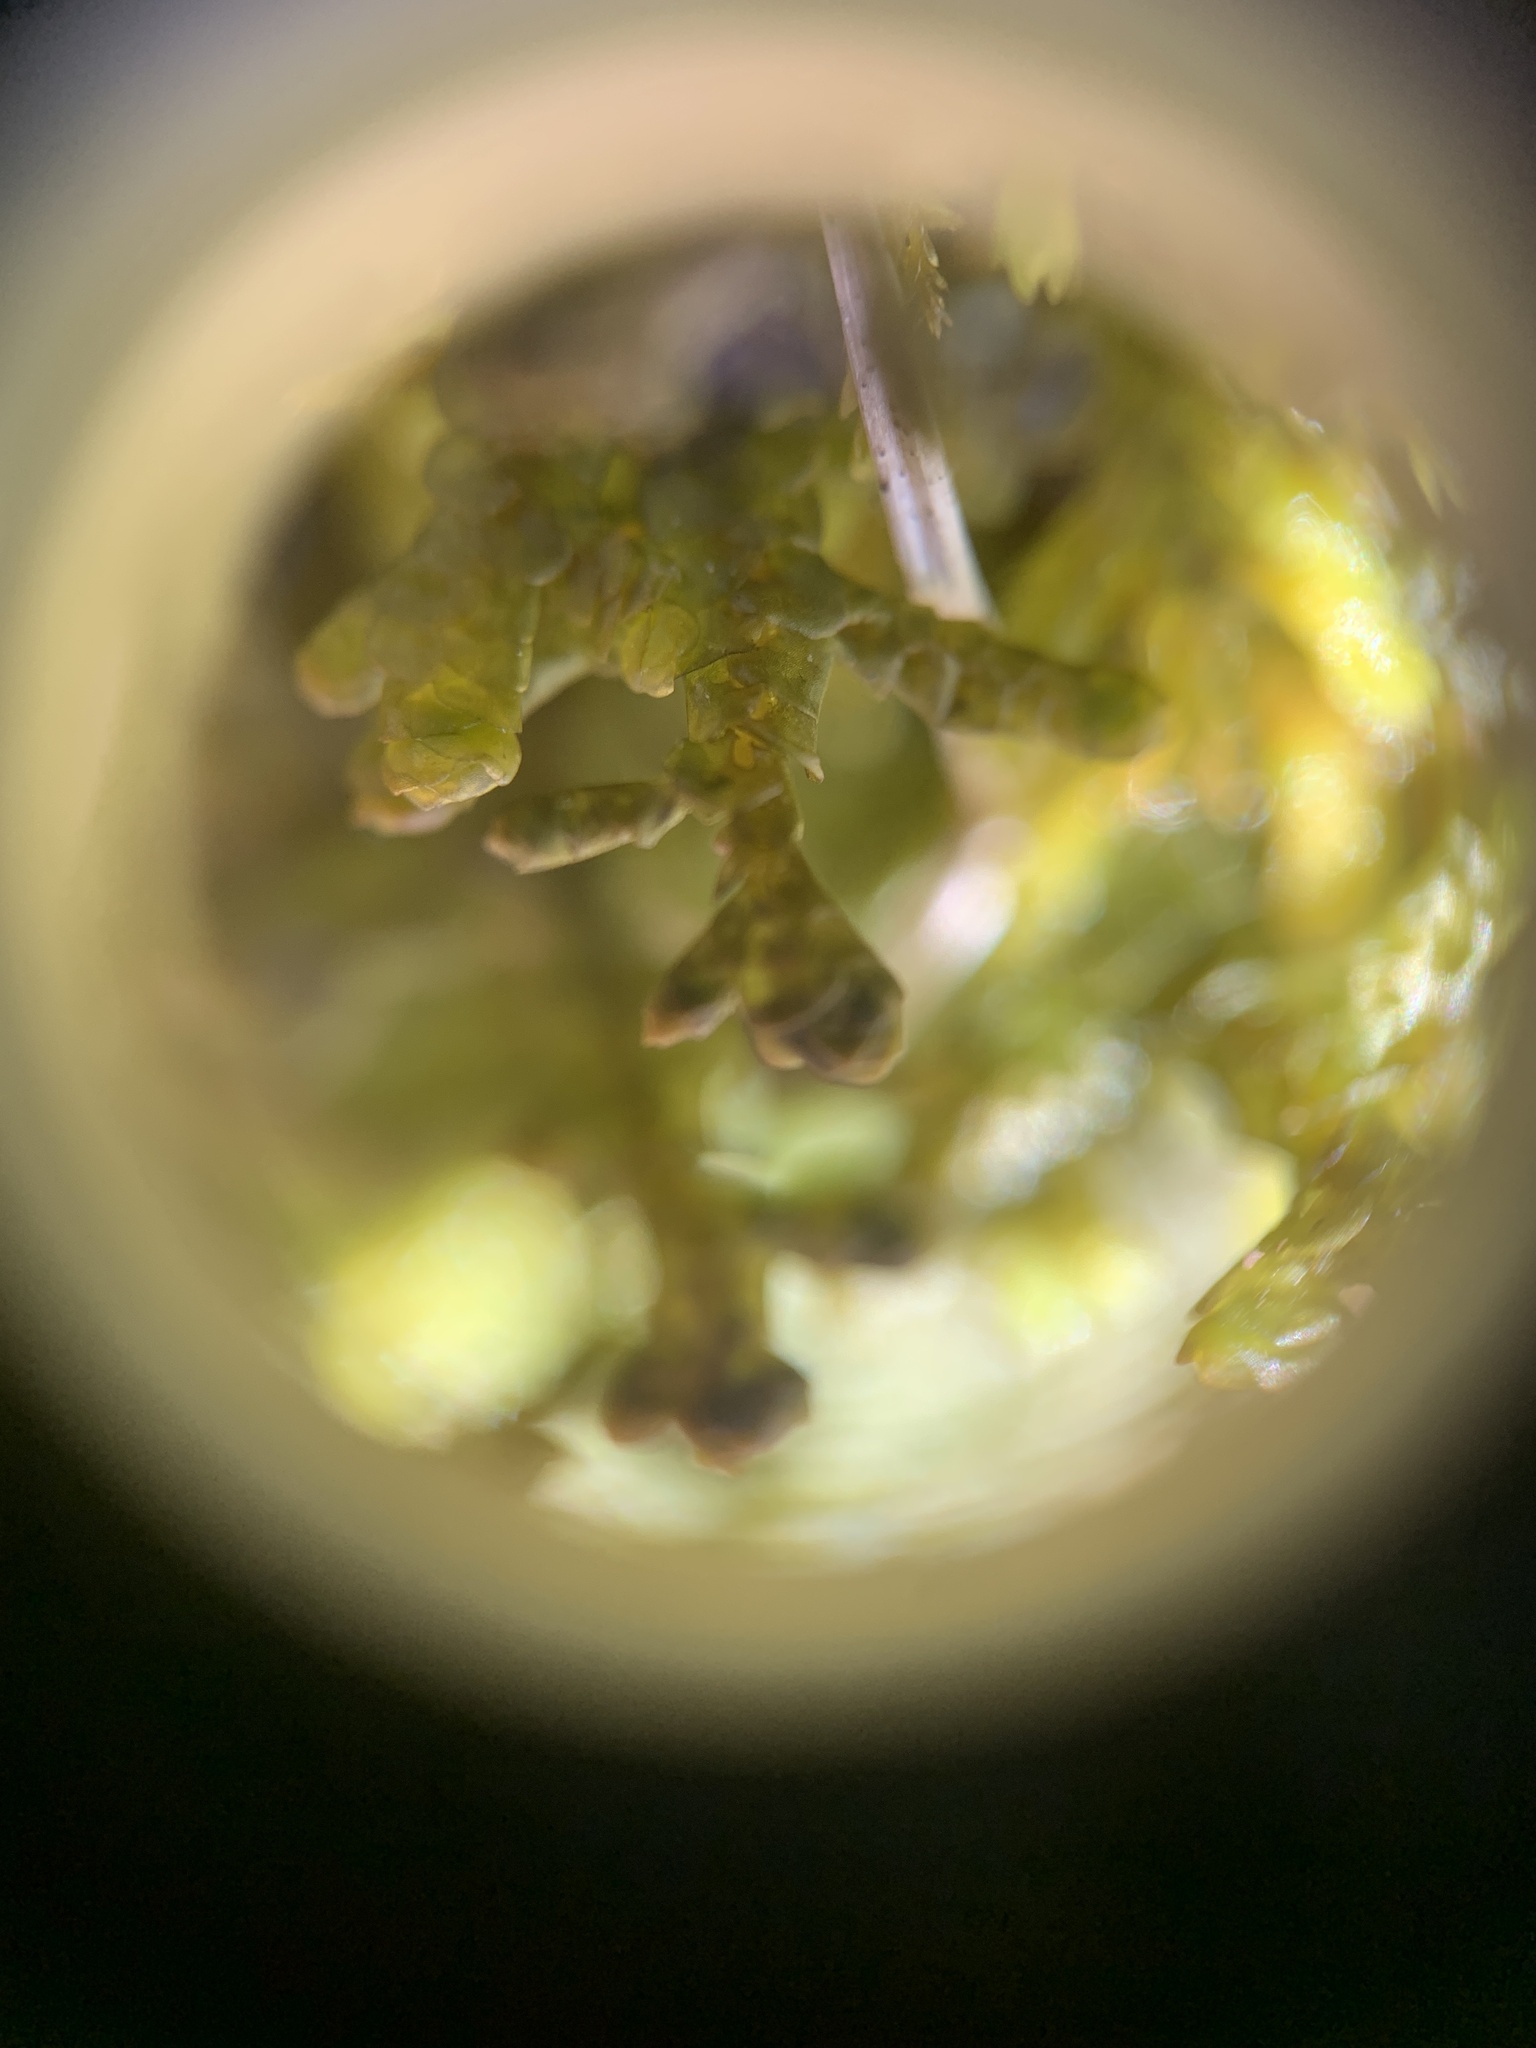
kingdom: Plantae
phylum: Marchantiophyta
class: Jungermanniopsida
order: Porellales
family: Porellaceae
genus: Porella
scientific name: Porella platyphylla
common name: Wall scalewort
